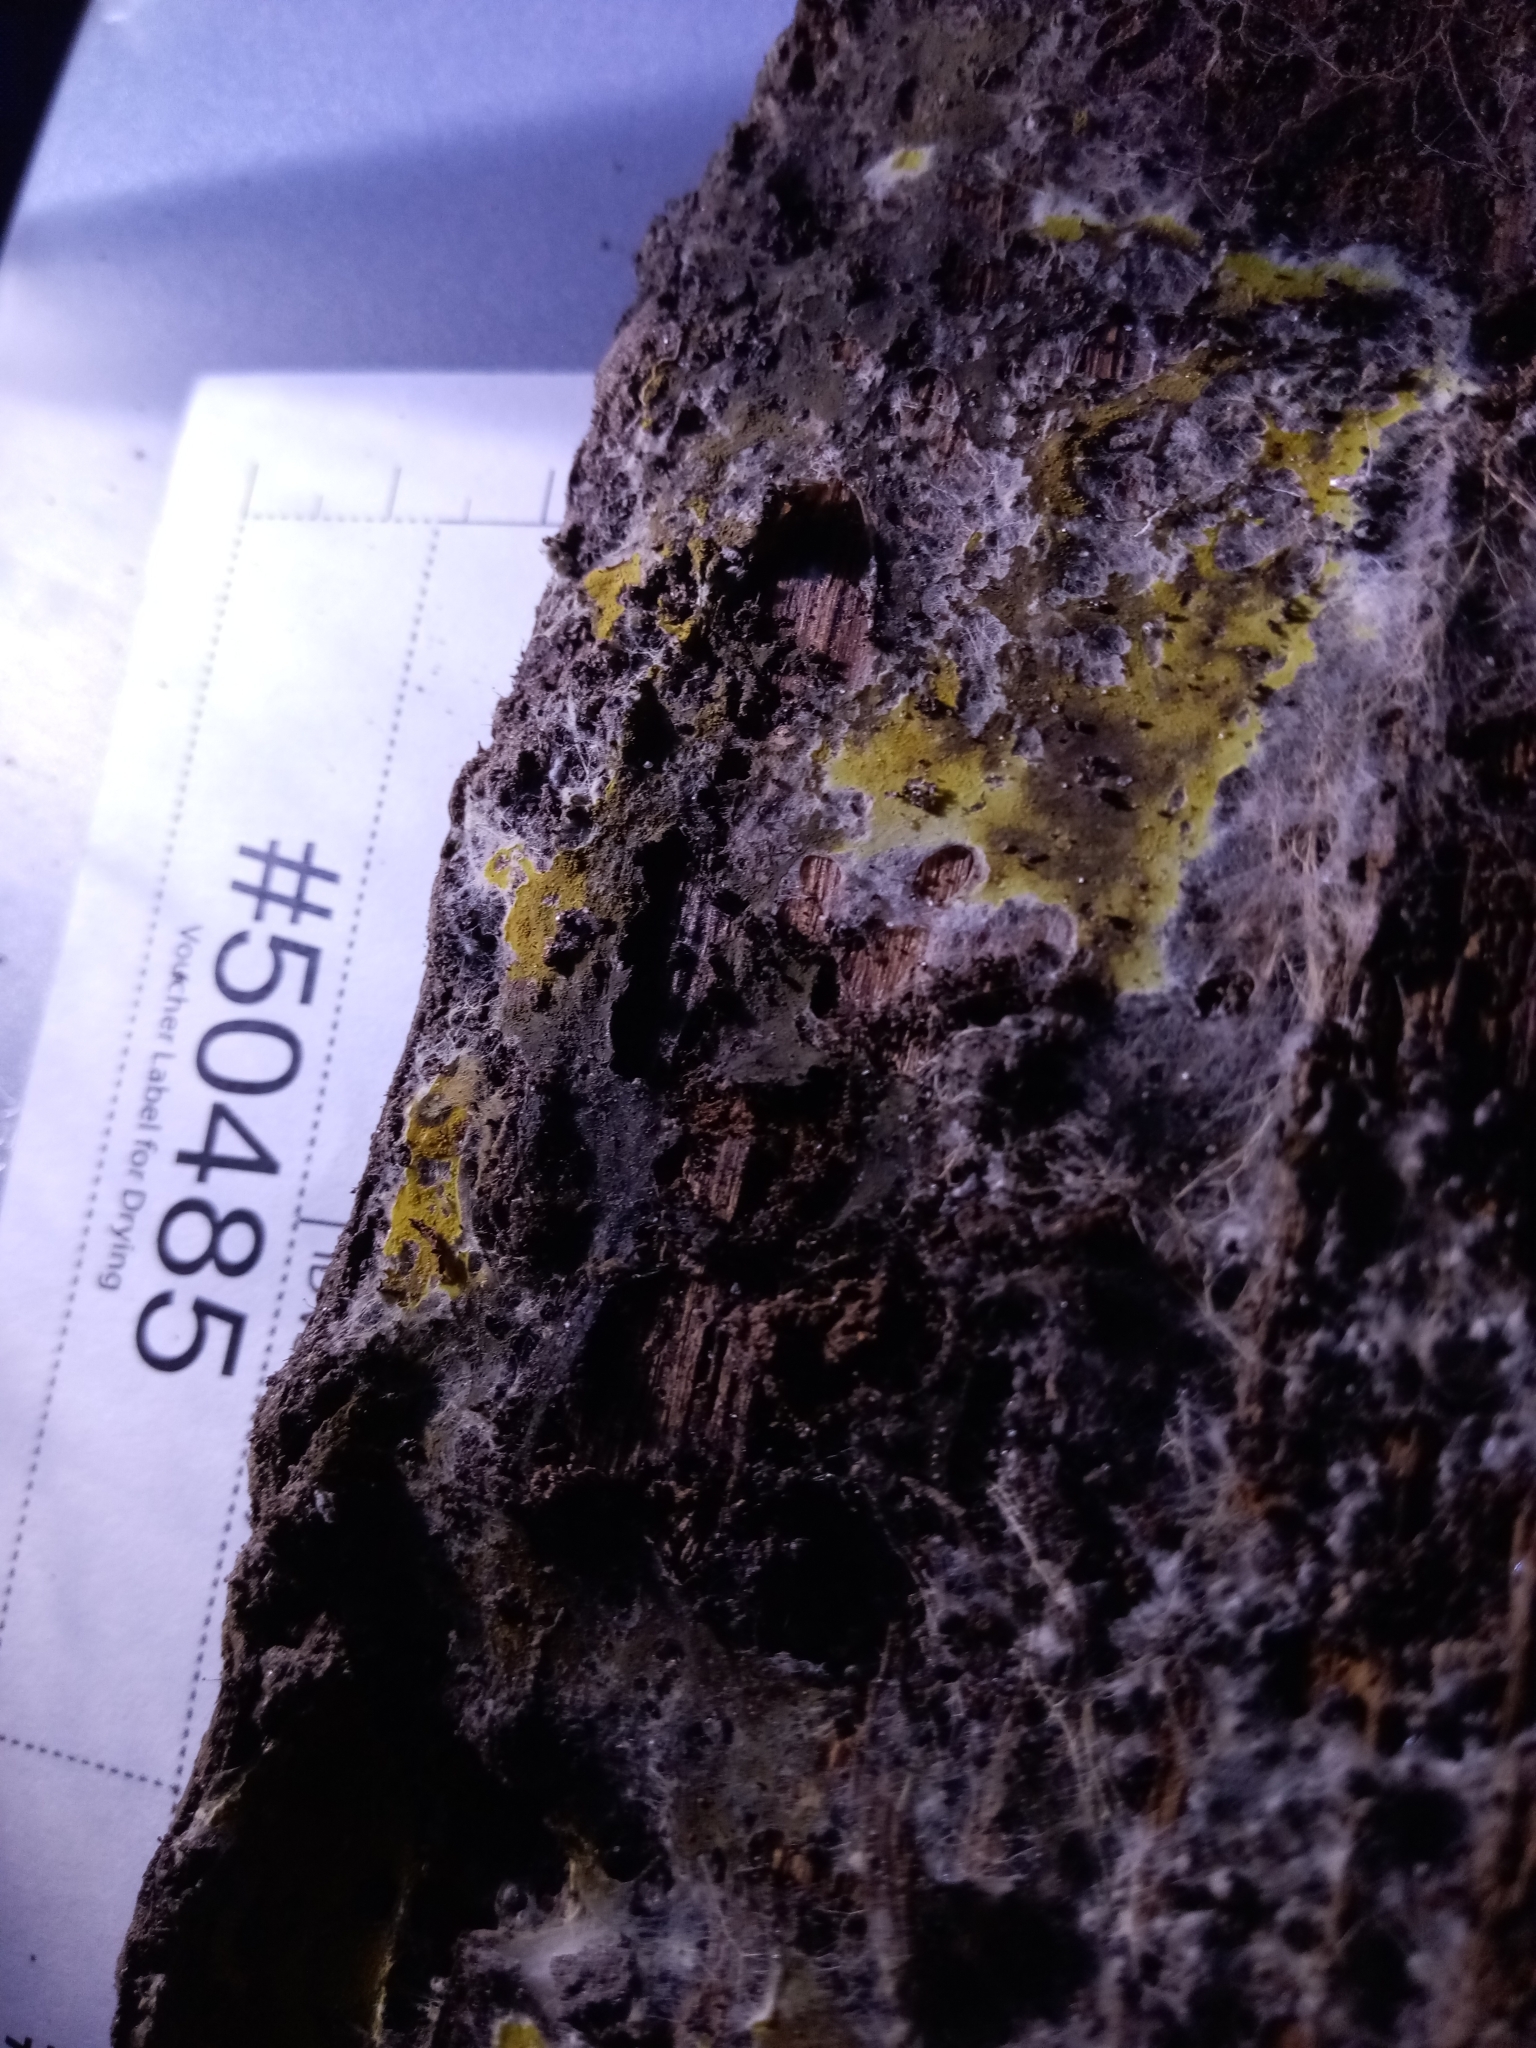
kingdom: Fungi
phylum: Basidiomycota
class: Agaricomycetes
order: Boletales
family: Coniophoraceae
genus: Penttilamyces
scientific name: Penttilamyces olivascens
